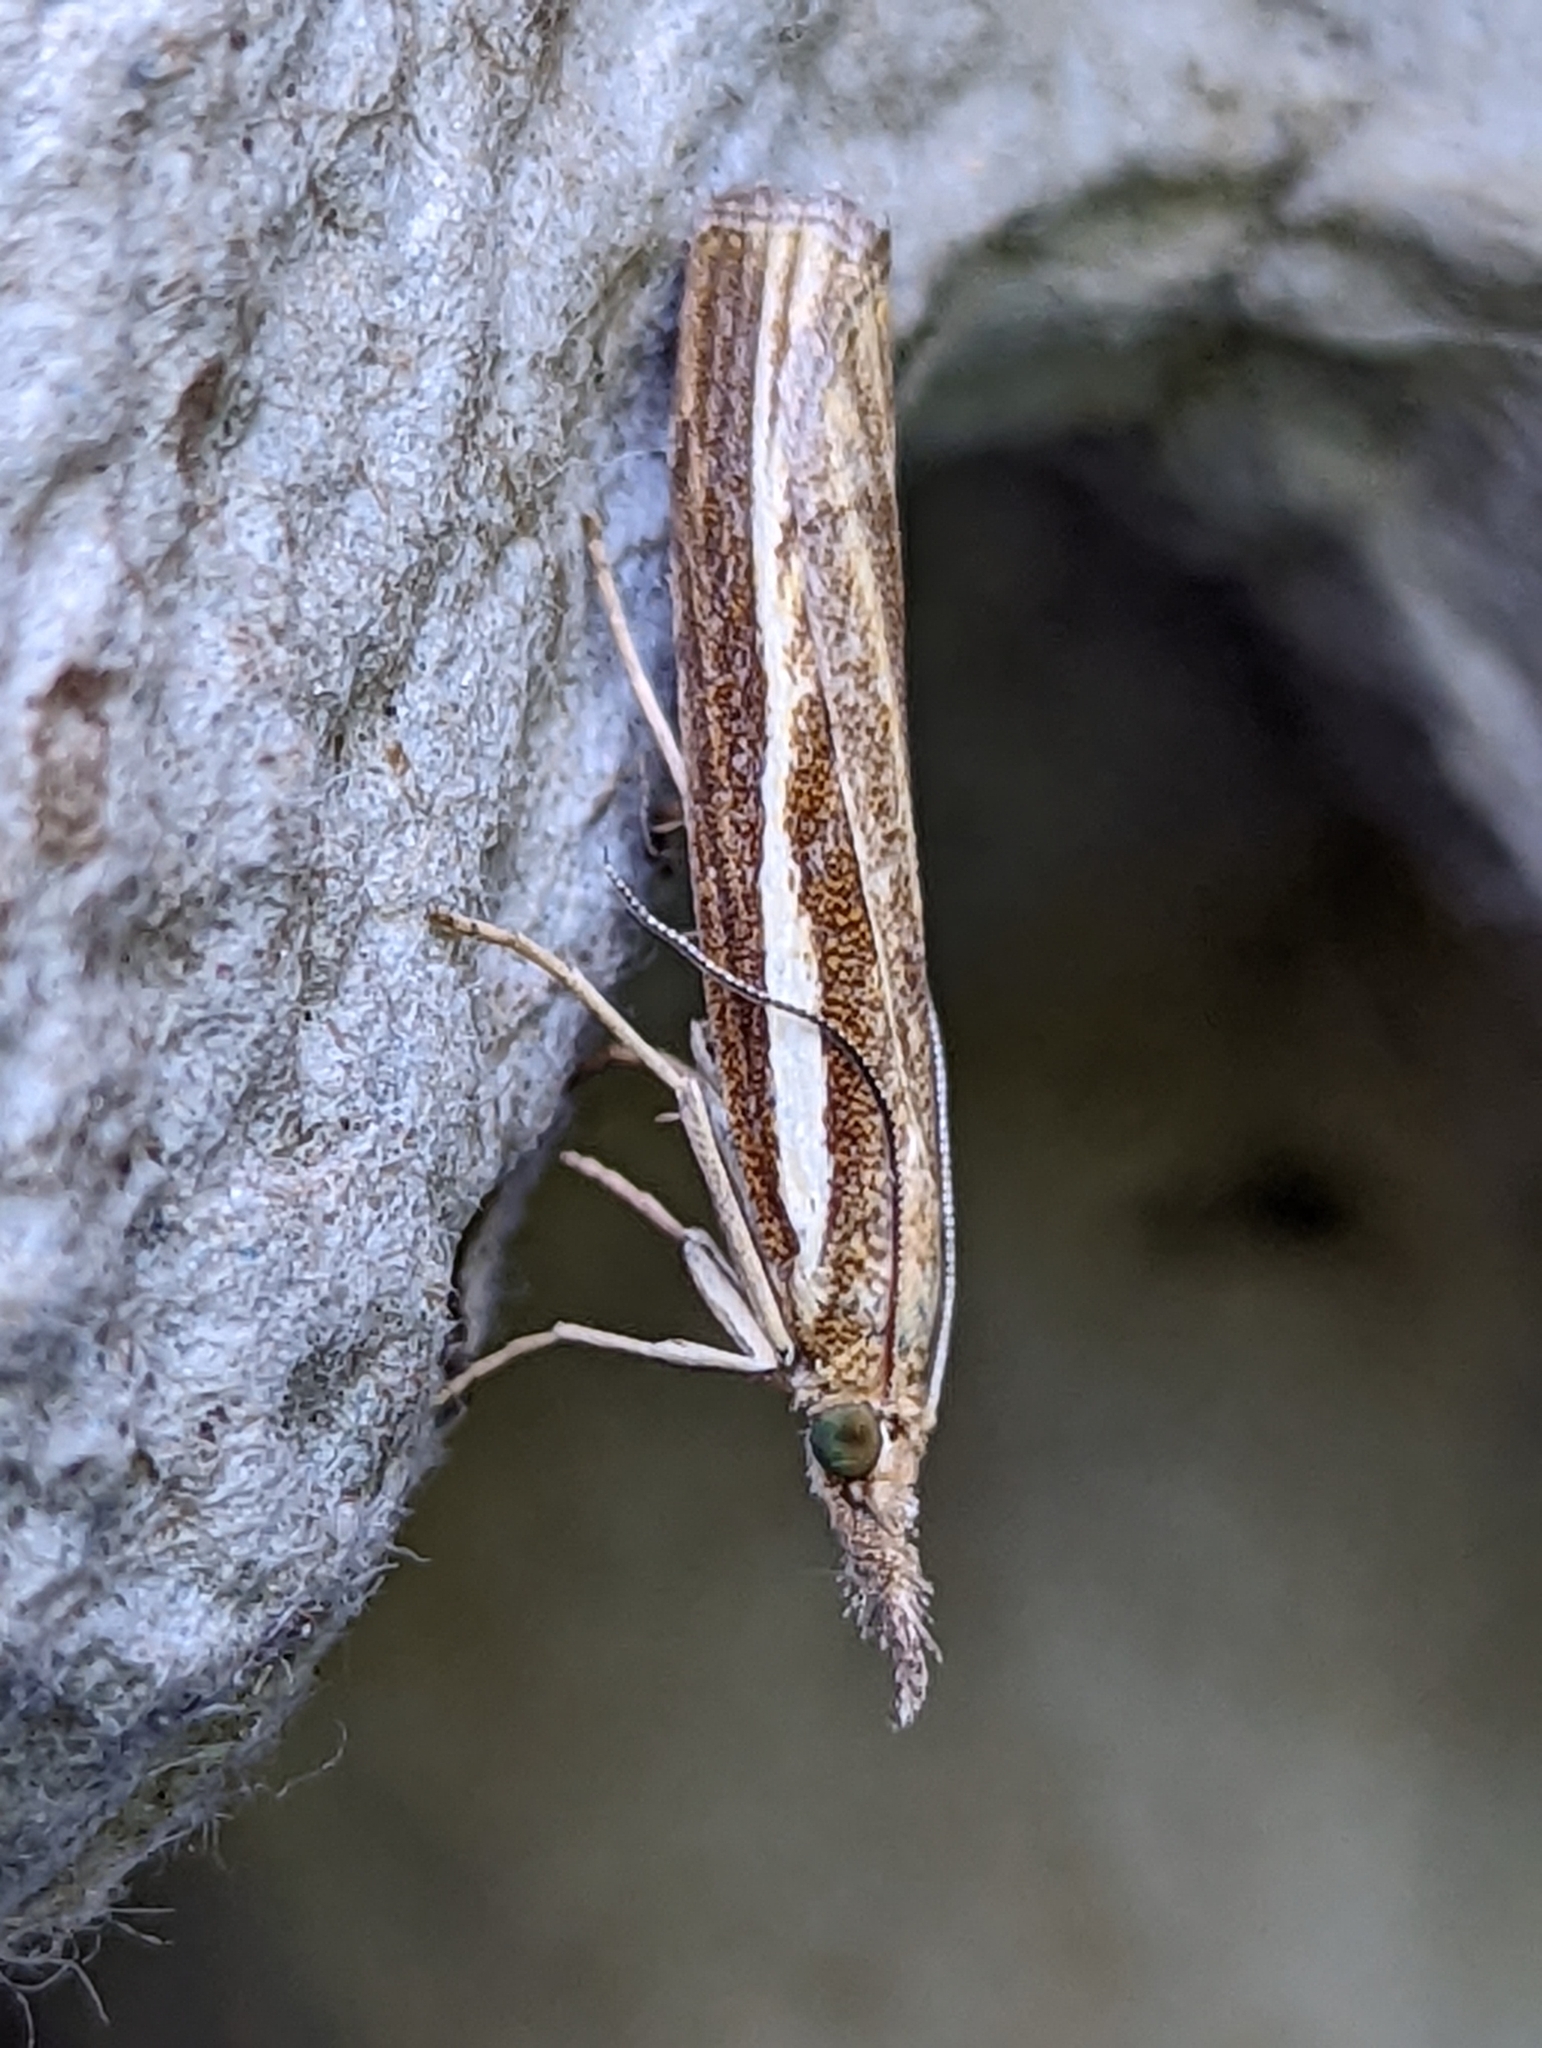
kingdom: Animalia
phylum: Arthropoda
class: Insecta
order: Lepidoptera
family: Crambidae
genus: Agriphila
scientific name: Agriphila tristellus
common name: Common grass-veneer
